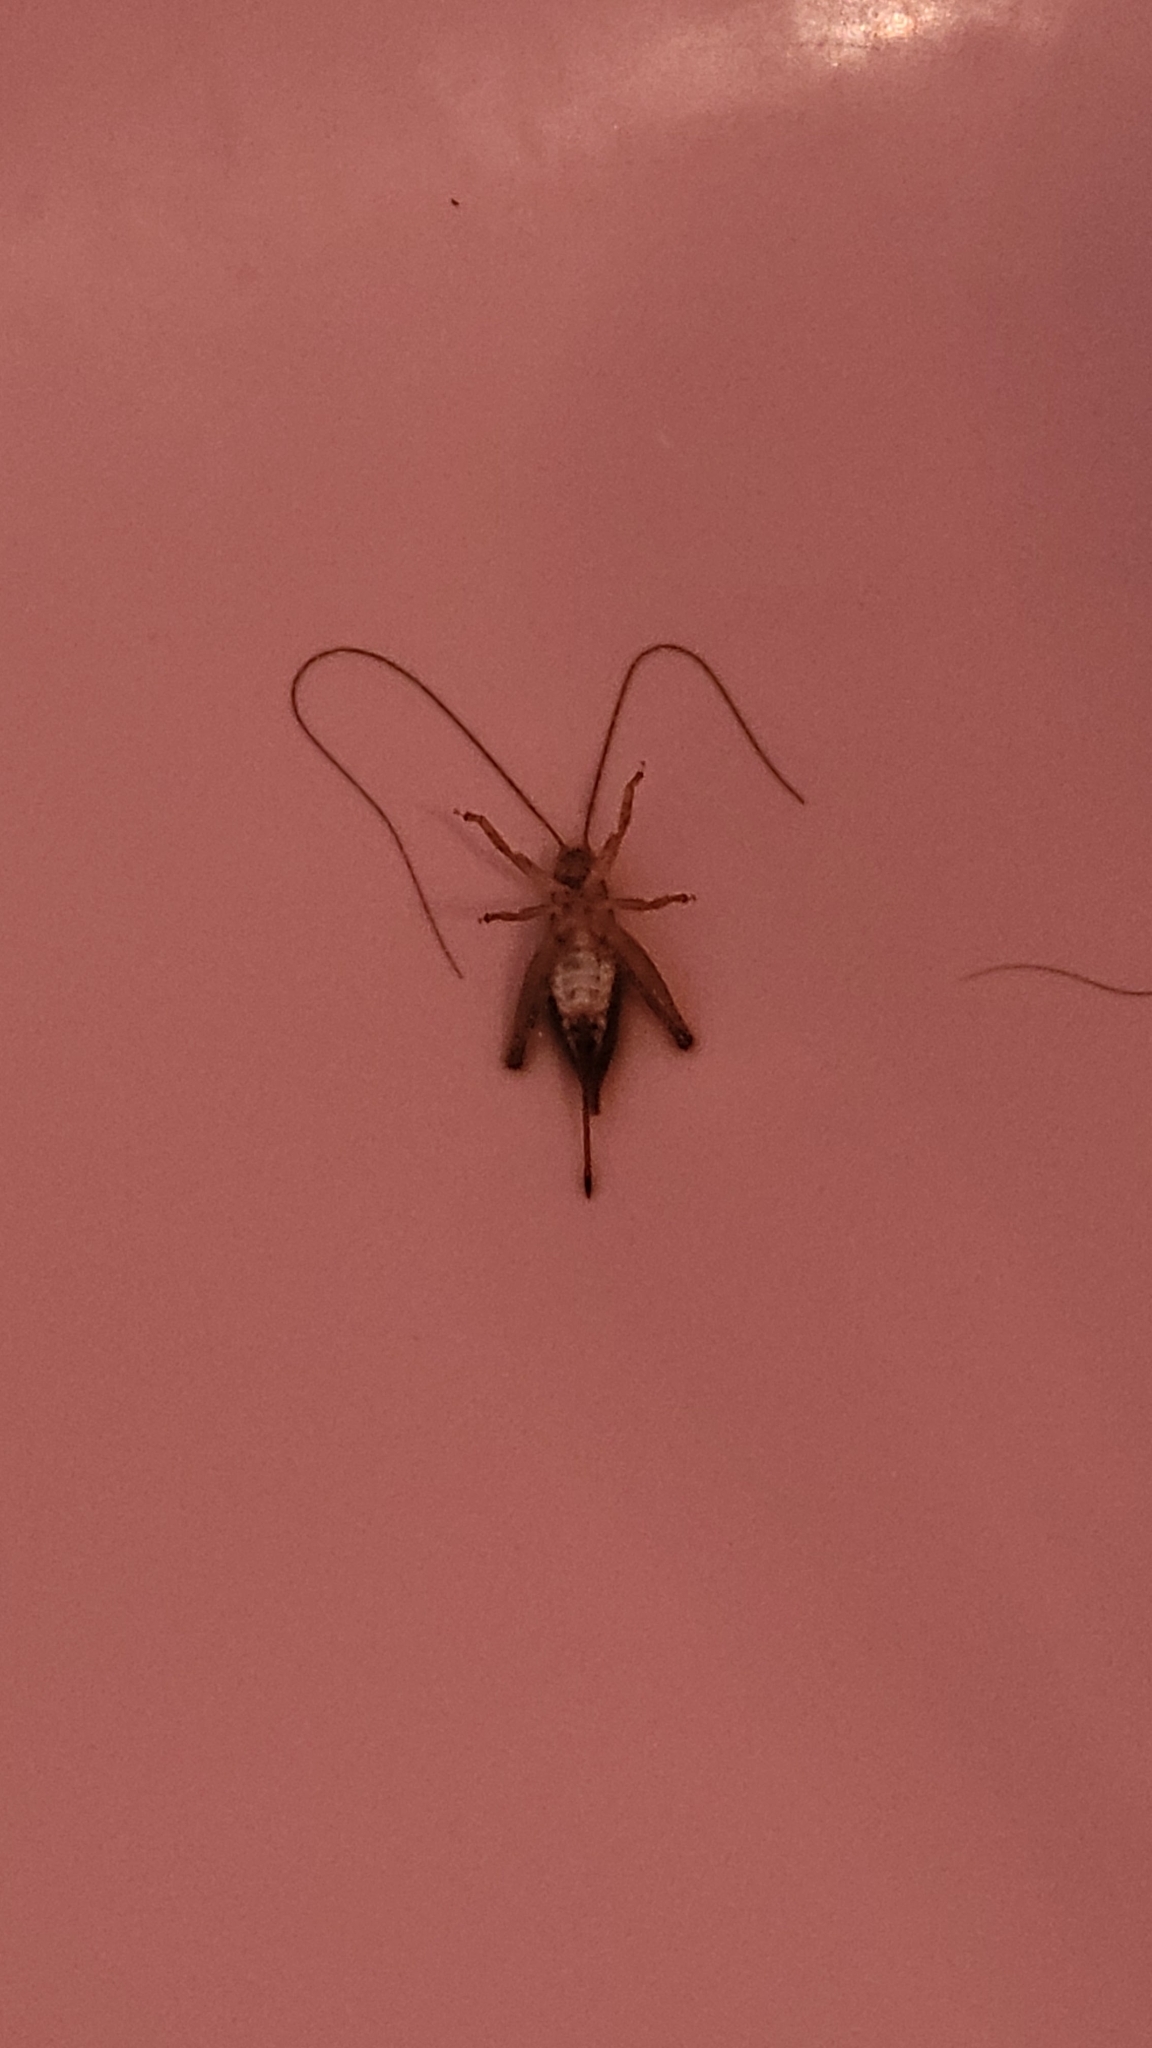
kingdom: Animalia
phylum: Arthropoda
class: Insecta
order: Orthoptera
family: Gryllidae
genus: Hapithus
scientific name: Hapithus saltator
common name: Jumping bush cricket
